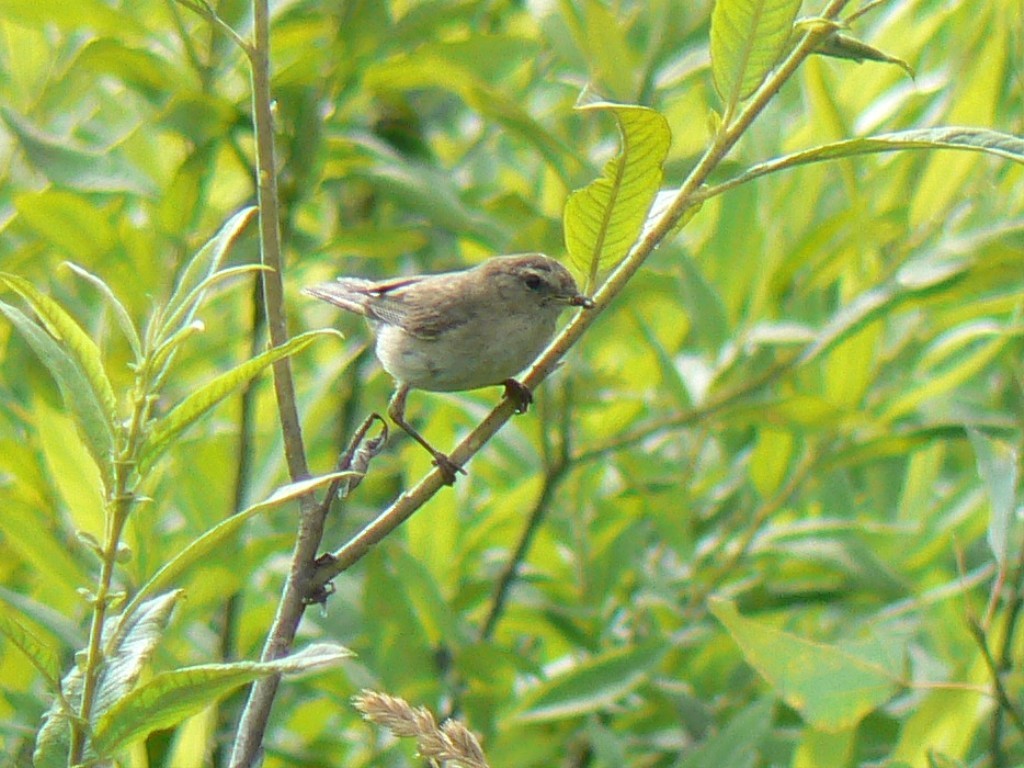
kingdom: Animalia
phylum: Chordata
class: Aves
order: Passeriformes
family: Phylloscopidae
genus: Phylloscopus
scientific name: Phylloscopus collybita
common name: Common chiffchaff
